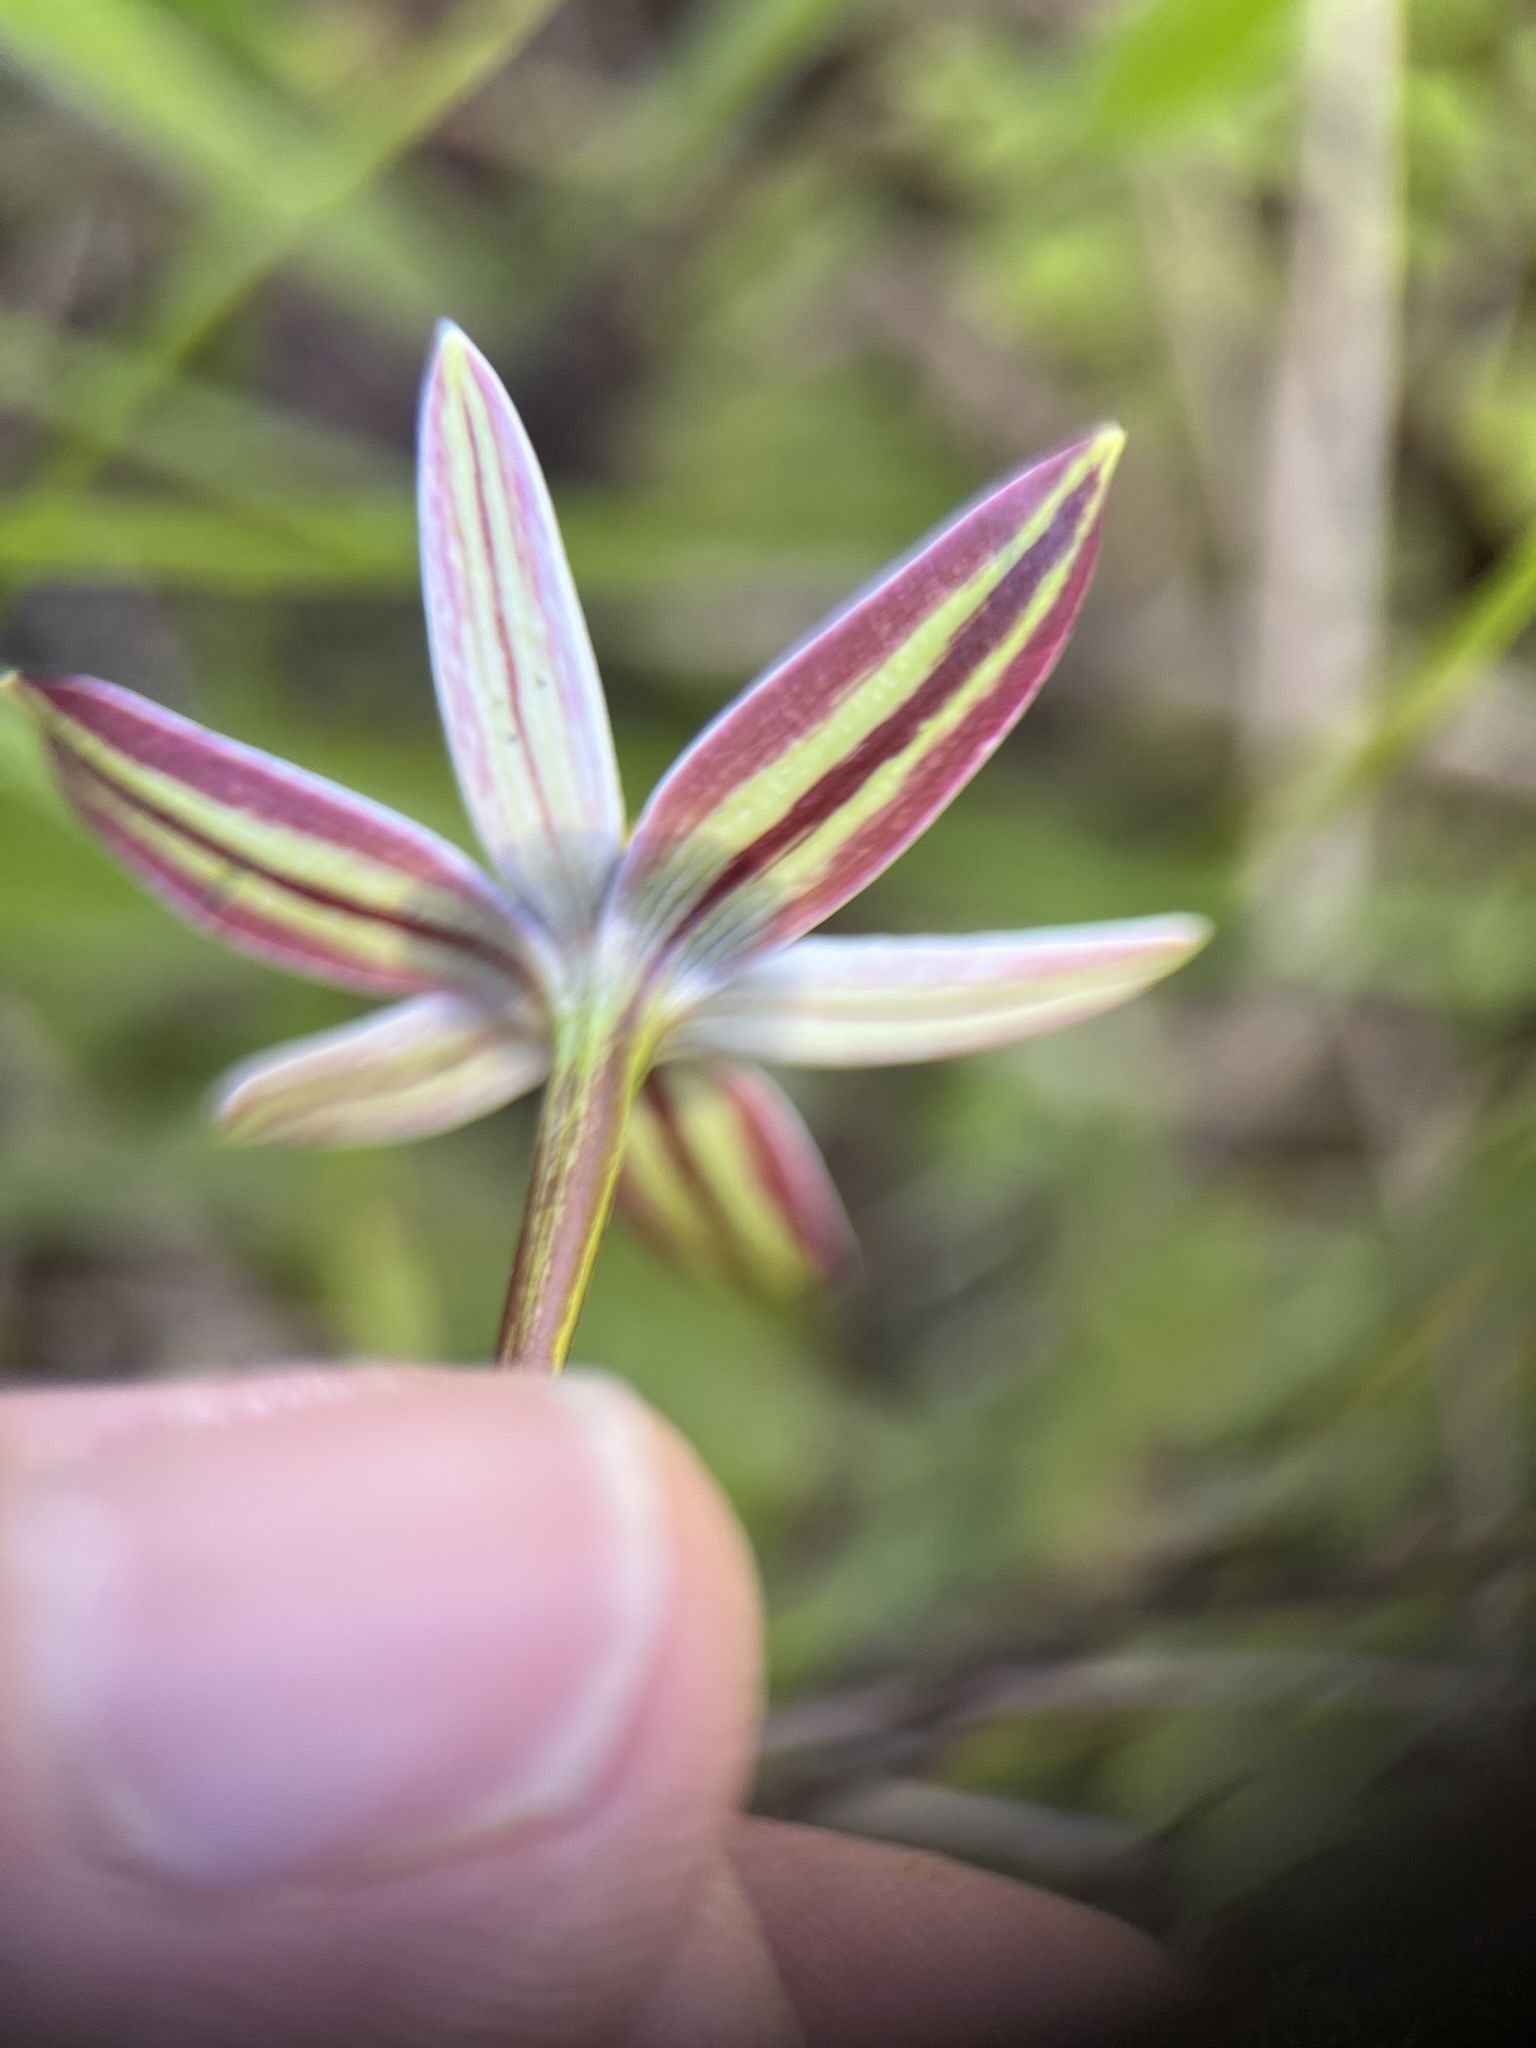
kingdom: Plantae
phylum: Tracheophyta
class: Liliopsida
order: Asparagales
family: Hypoxidaceae
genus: Pauridia
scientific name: Pauridia capensis
